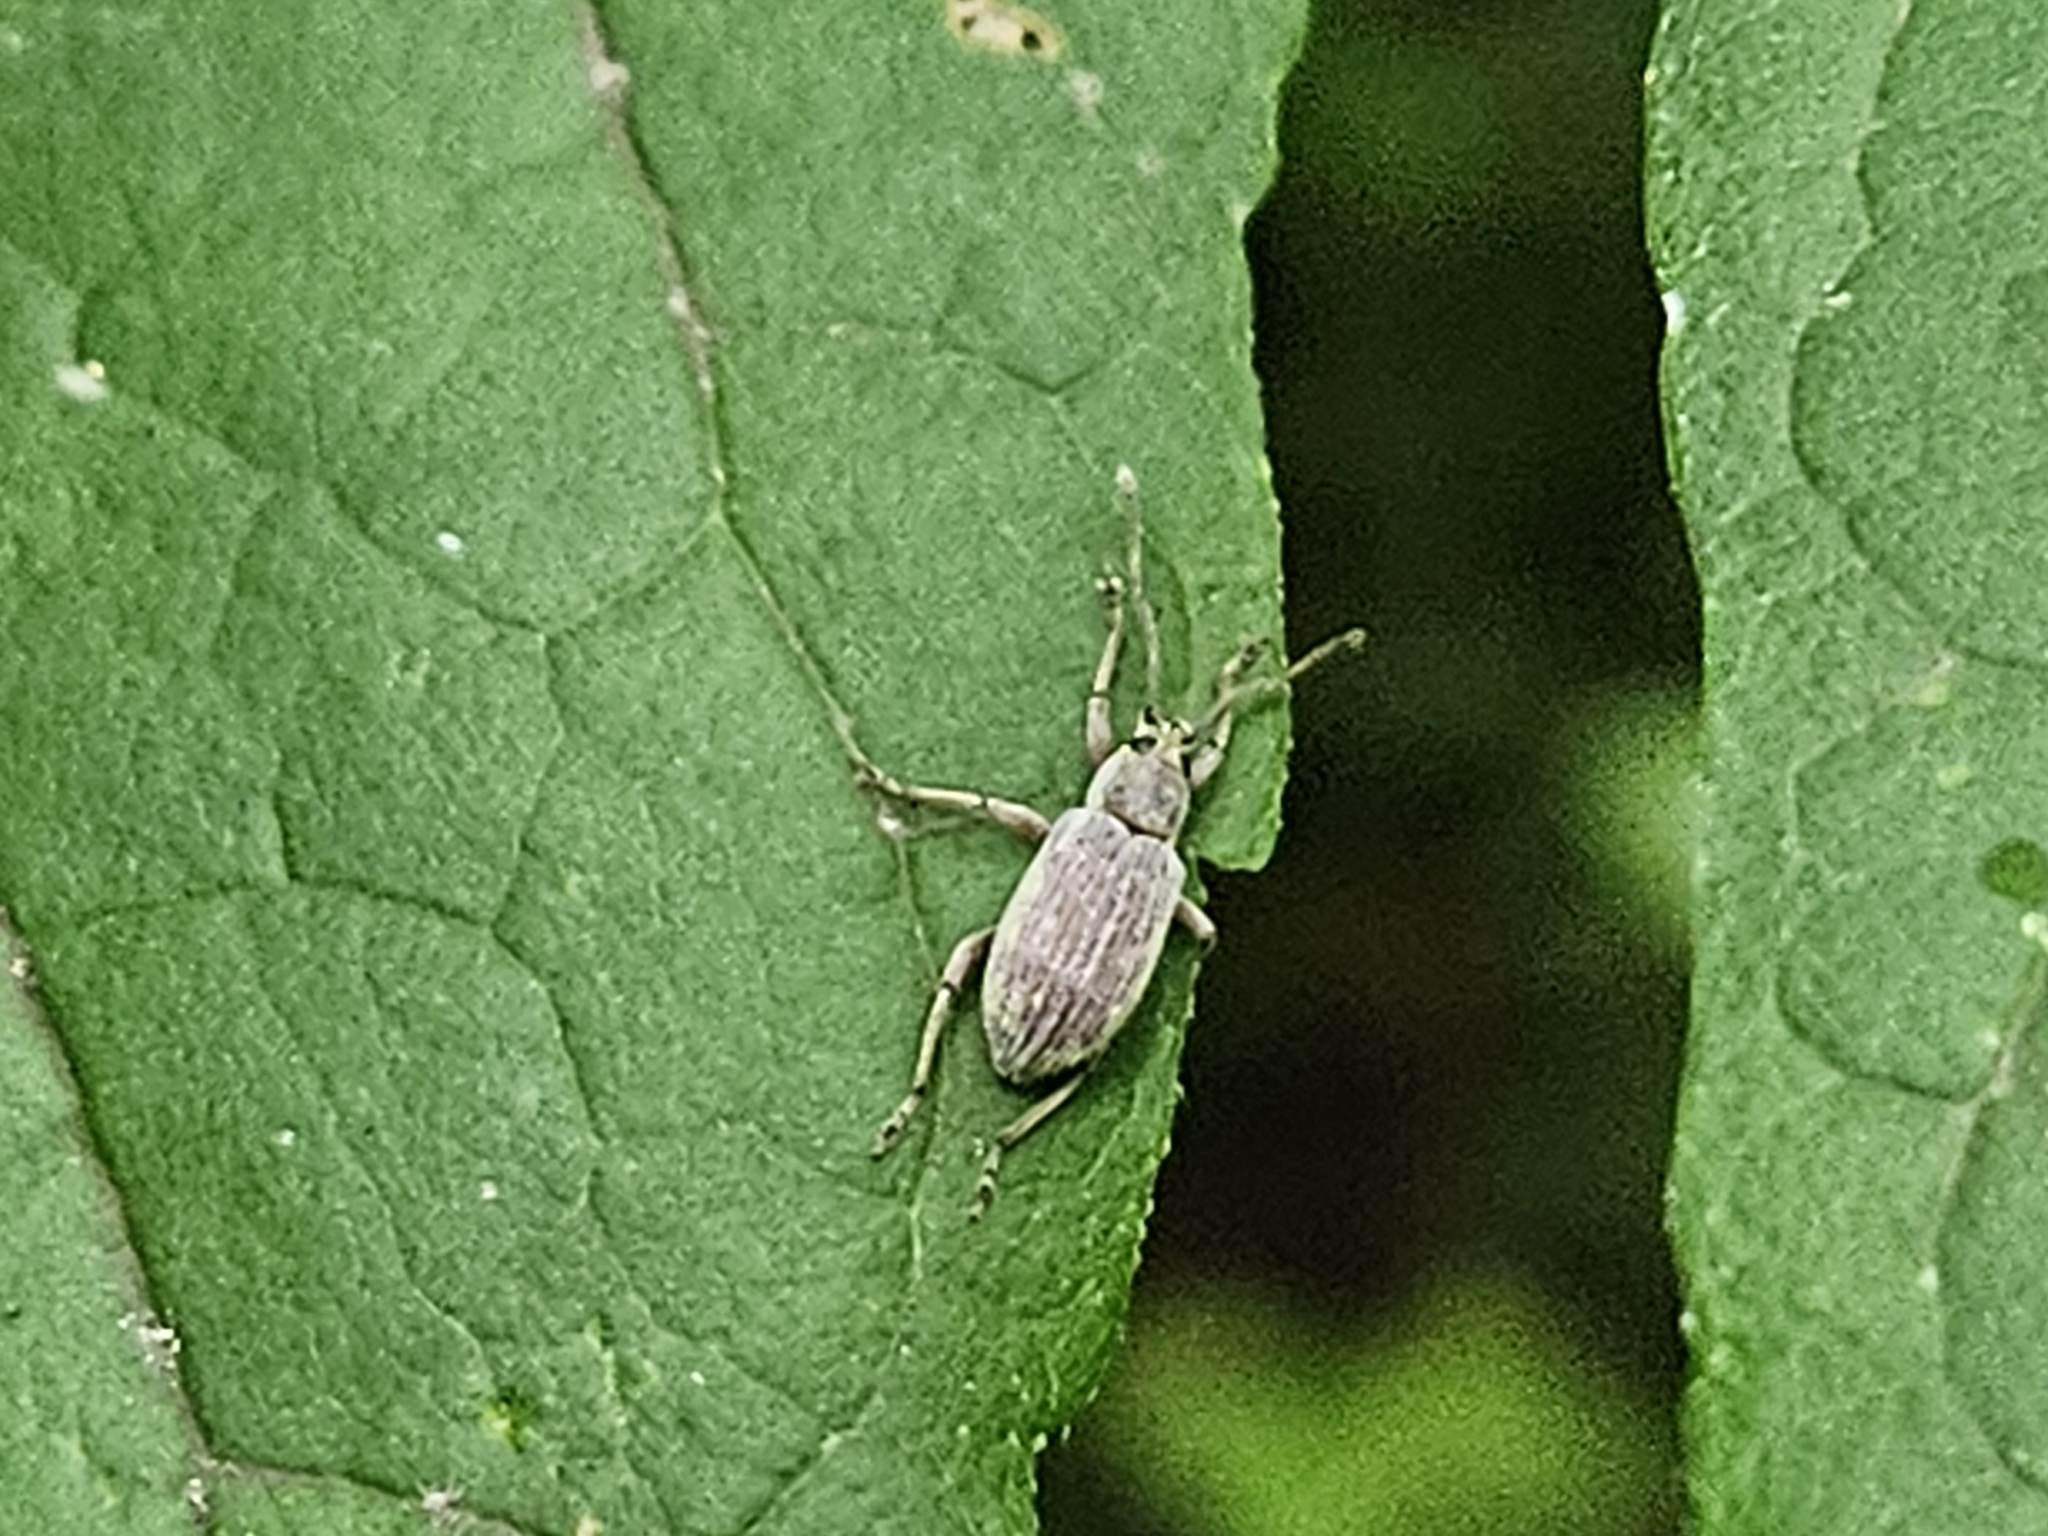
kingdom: Animalia
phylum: Arthropoda
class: Insecta
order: Coleoptera
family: Curculionidae
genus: Cyrtepistomus
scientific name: Cyrtepistomus castaneus
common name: Weevil
